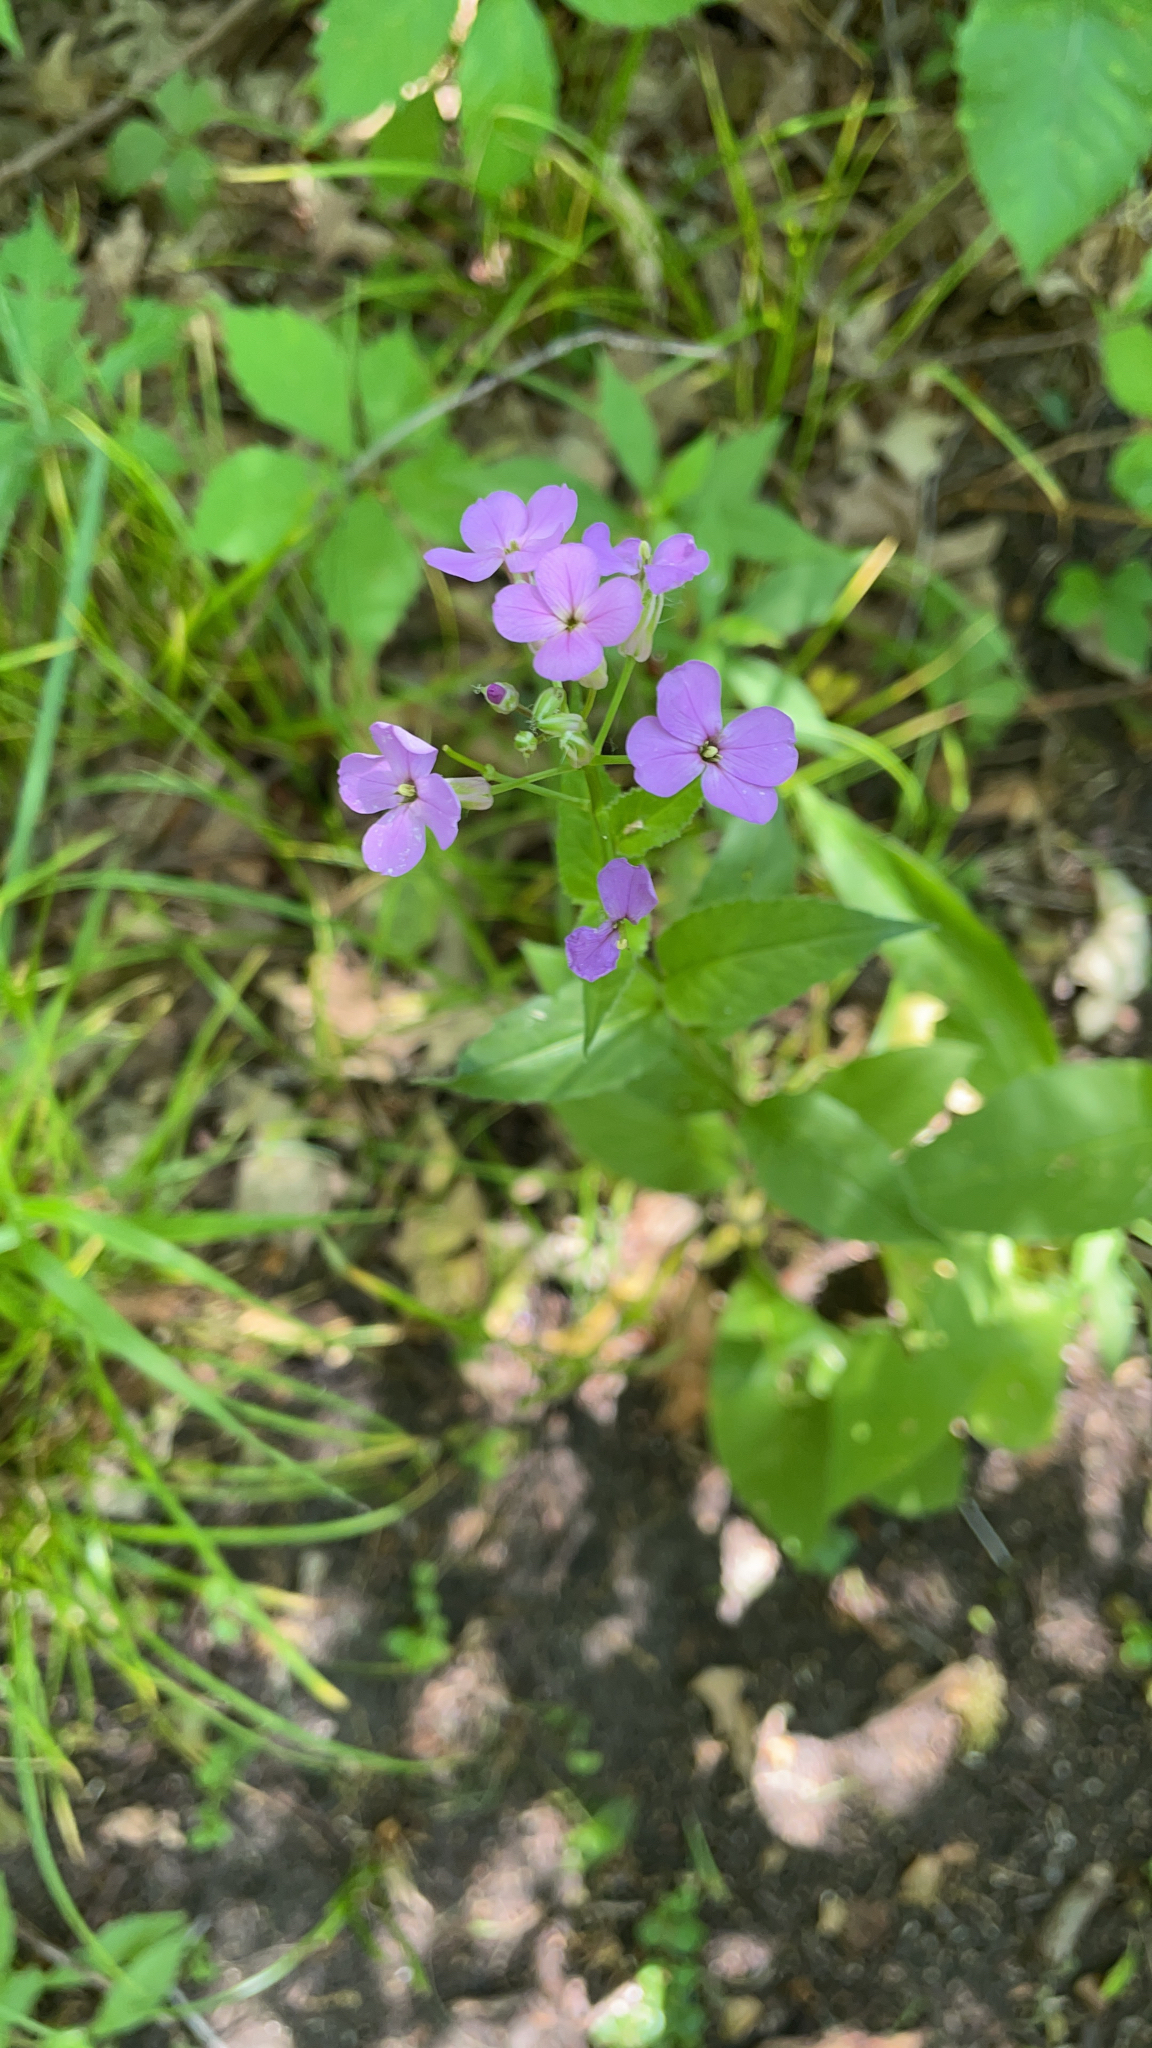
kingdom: Plantae
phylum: Tracheophyta
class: Magnoliopsida
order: Brassicales
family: Brassicaceae
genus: Hesperis
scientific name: Hesperis matronalis
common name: Dame's-violet
